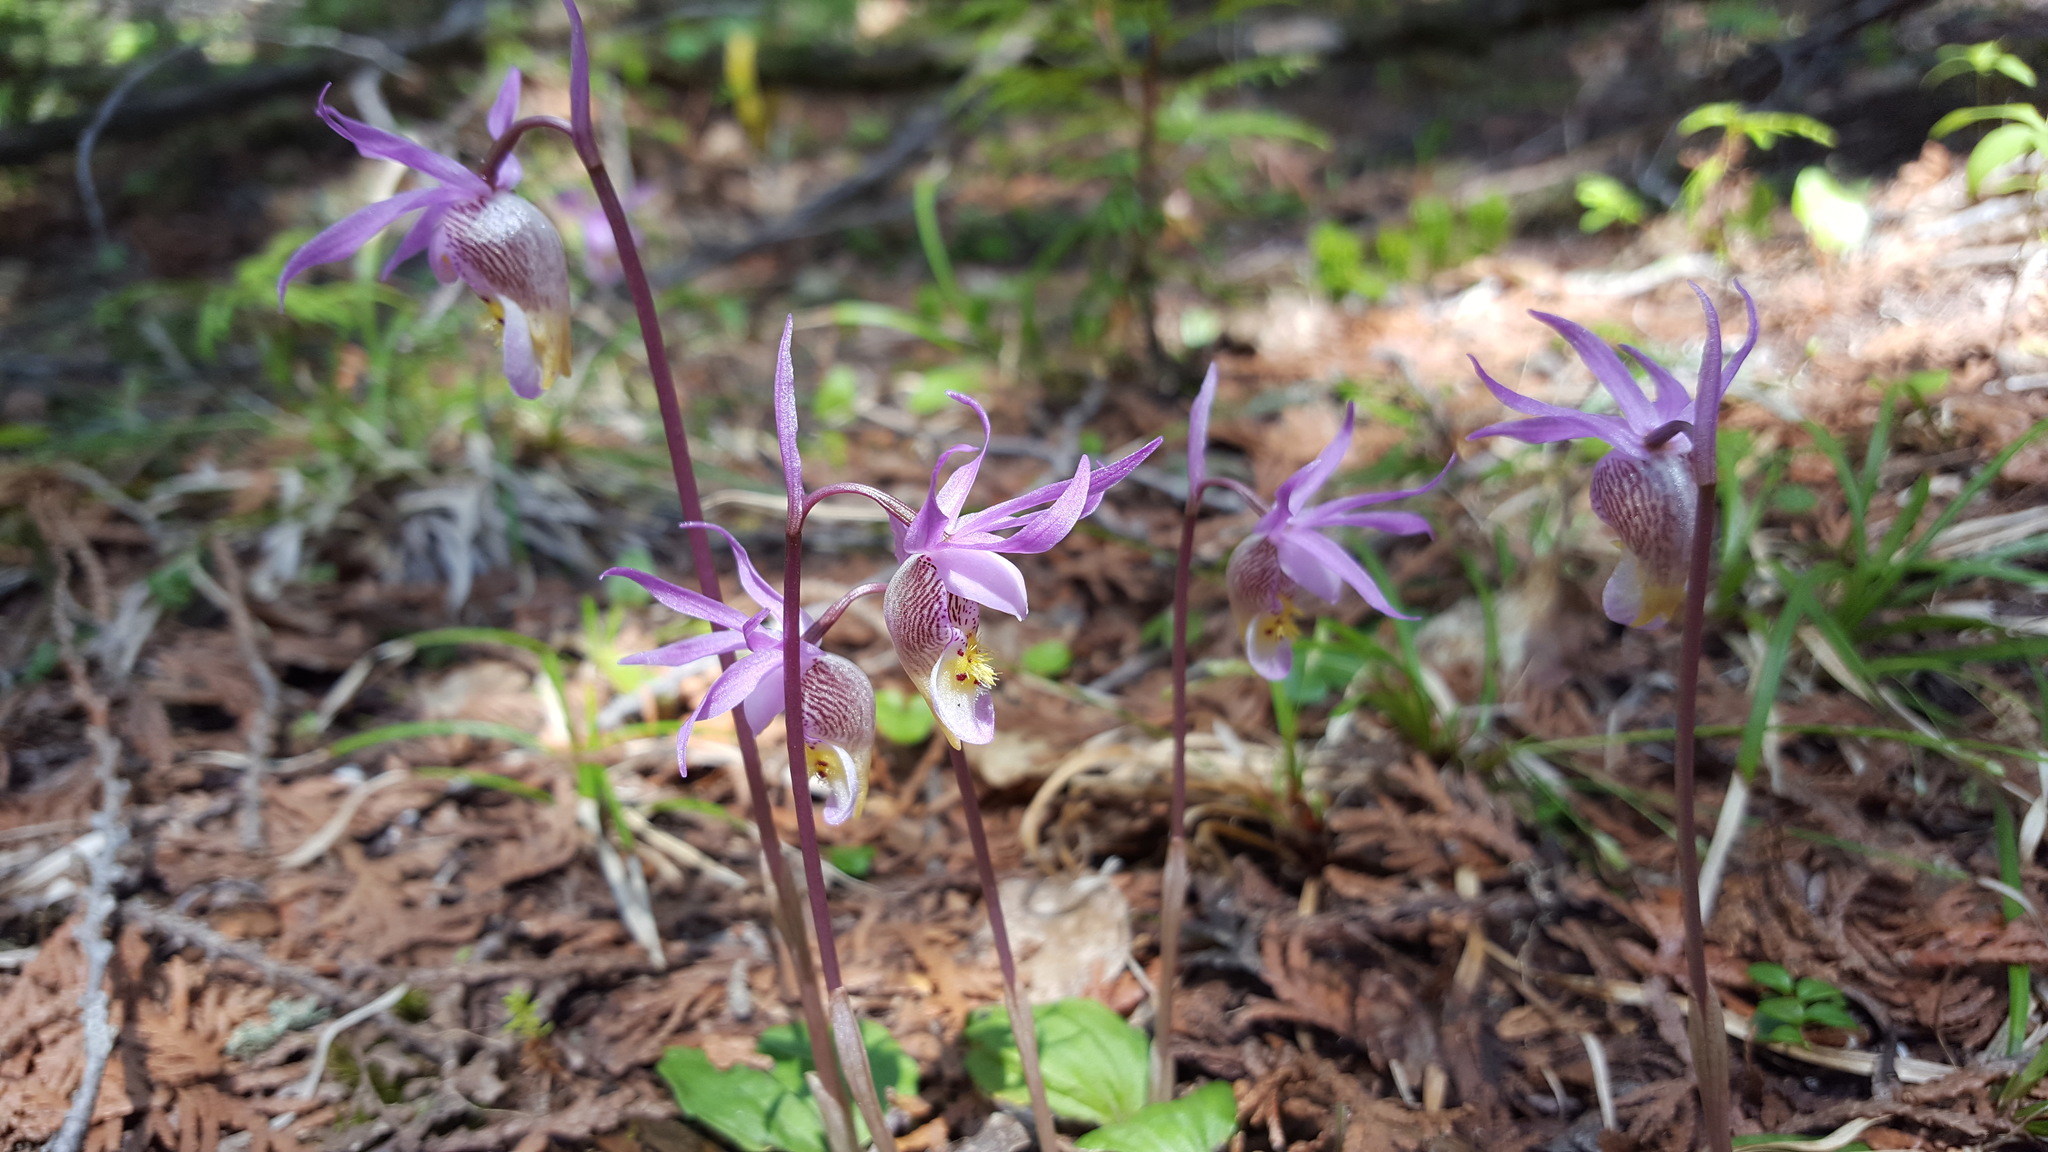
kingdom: Plantae
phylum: Tracheophyta
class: Liliopsida
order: Asparagales
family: Orchidaceae
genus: Calypso
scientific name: Calypso bulbosa
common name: Calypso
